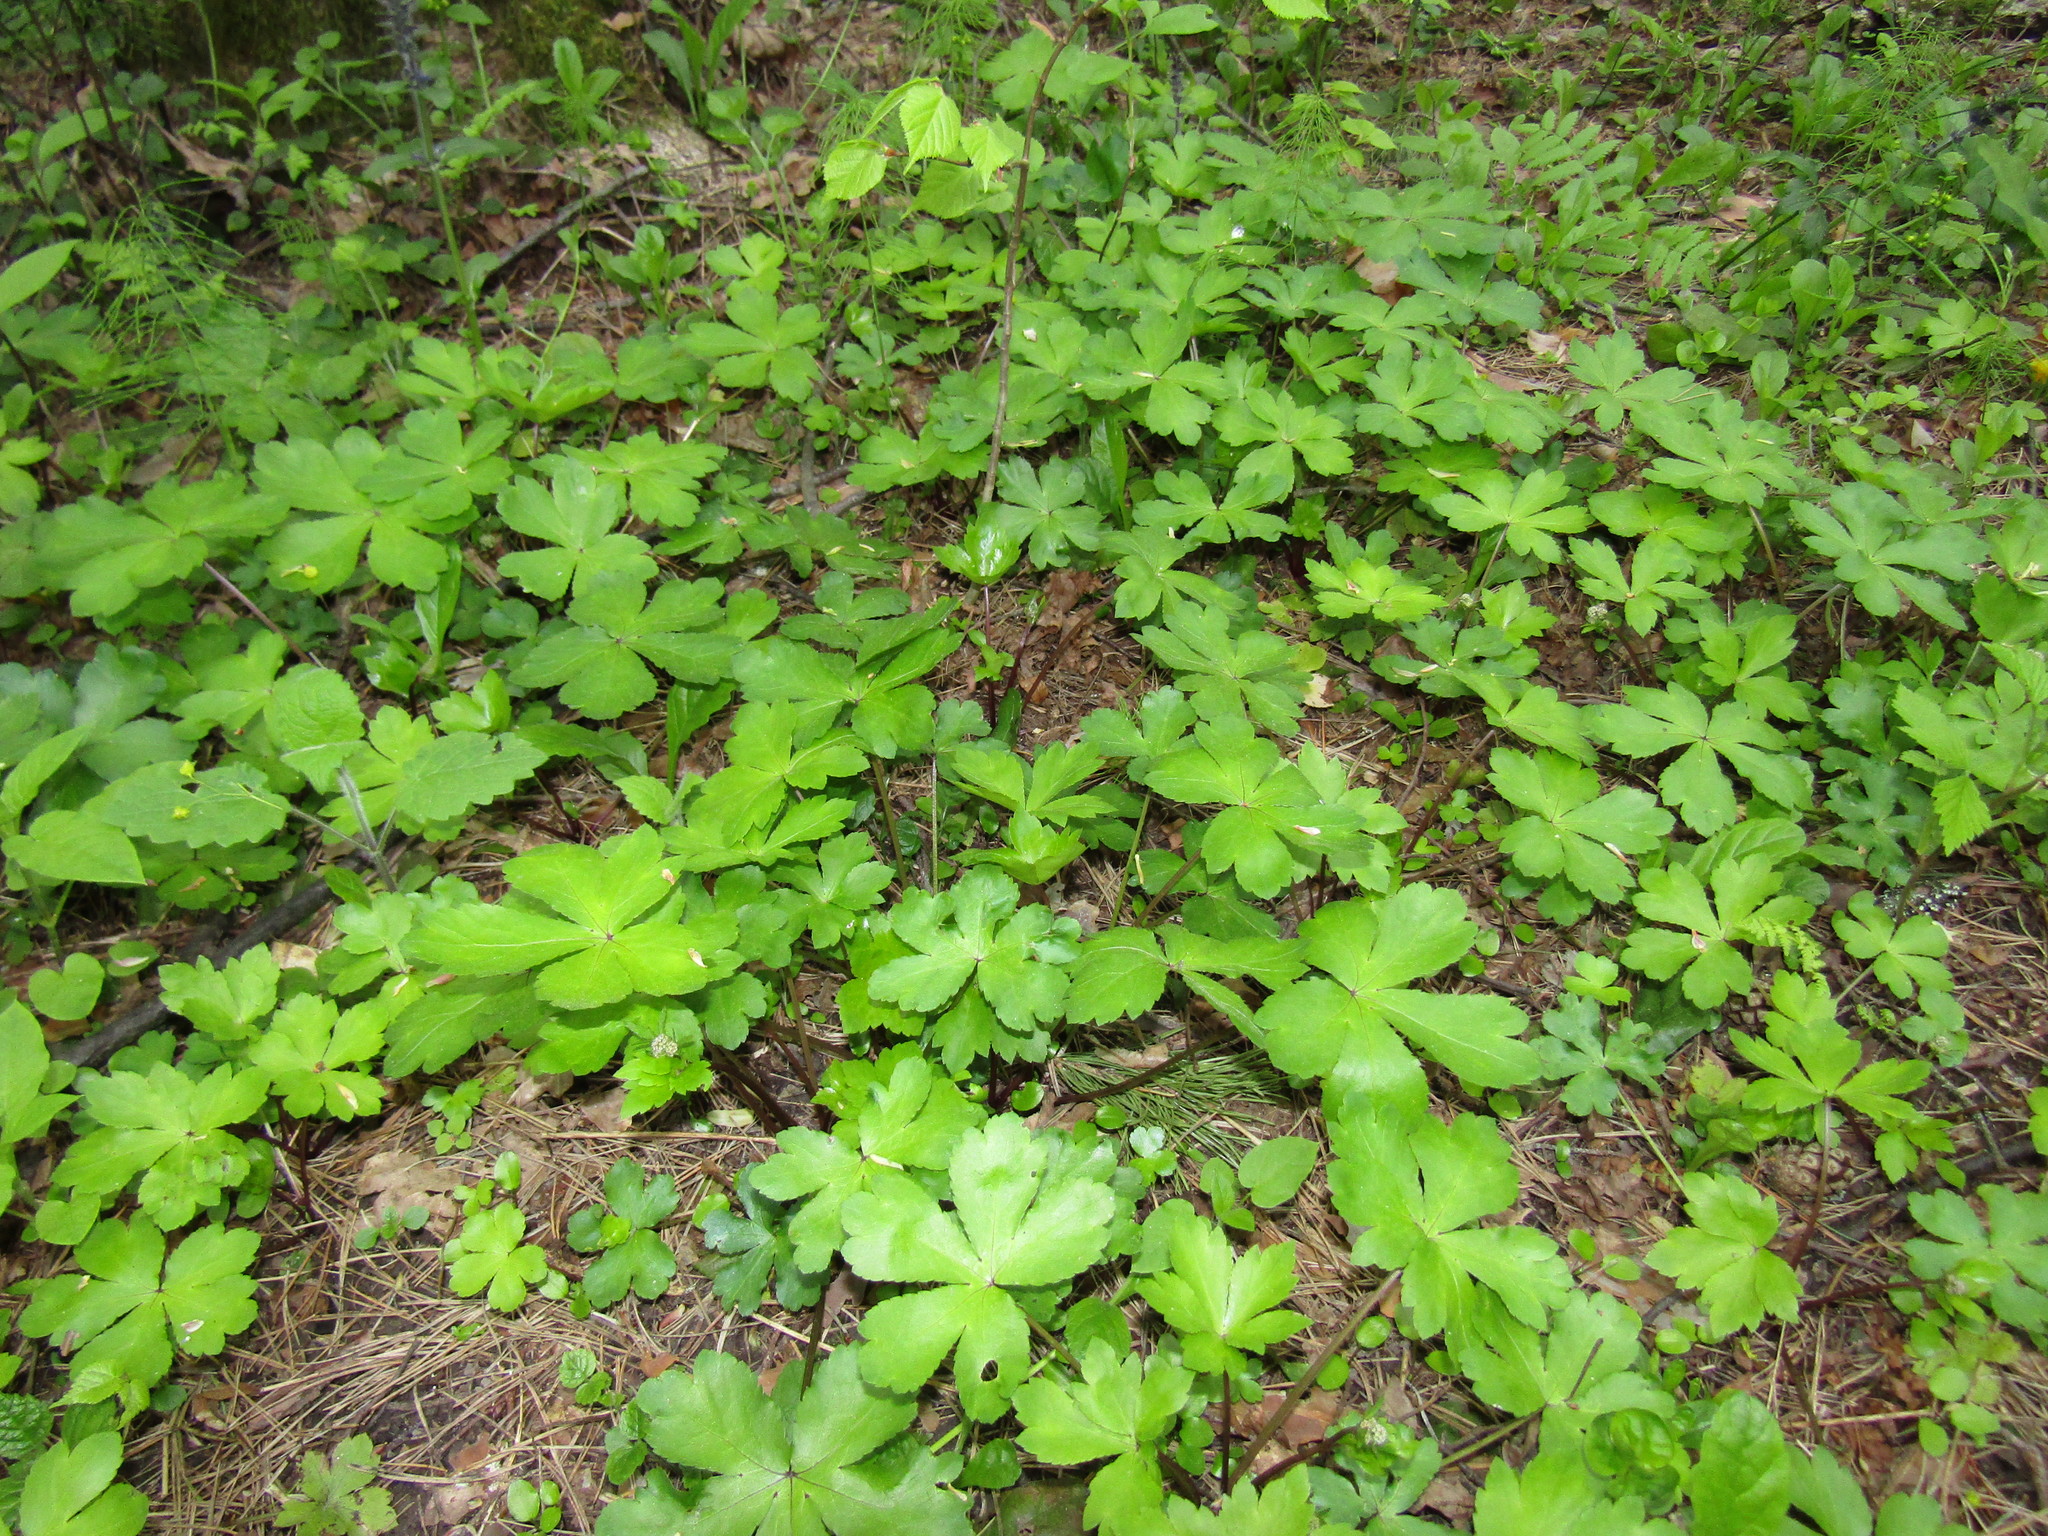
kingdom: Plantae
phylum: Tracheophyta
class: Magnoliopsida
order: Apiales
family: Apiaceae
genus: Sanicula
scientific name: Sanicula europaea
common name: Sanicle
